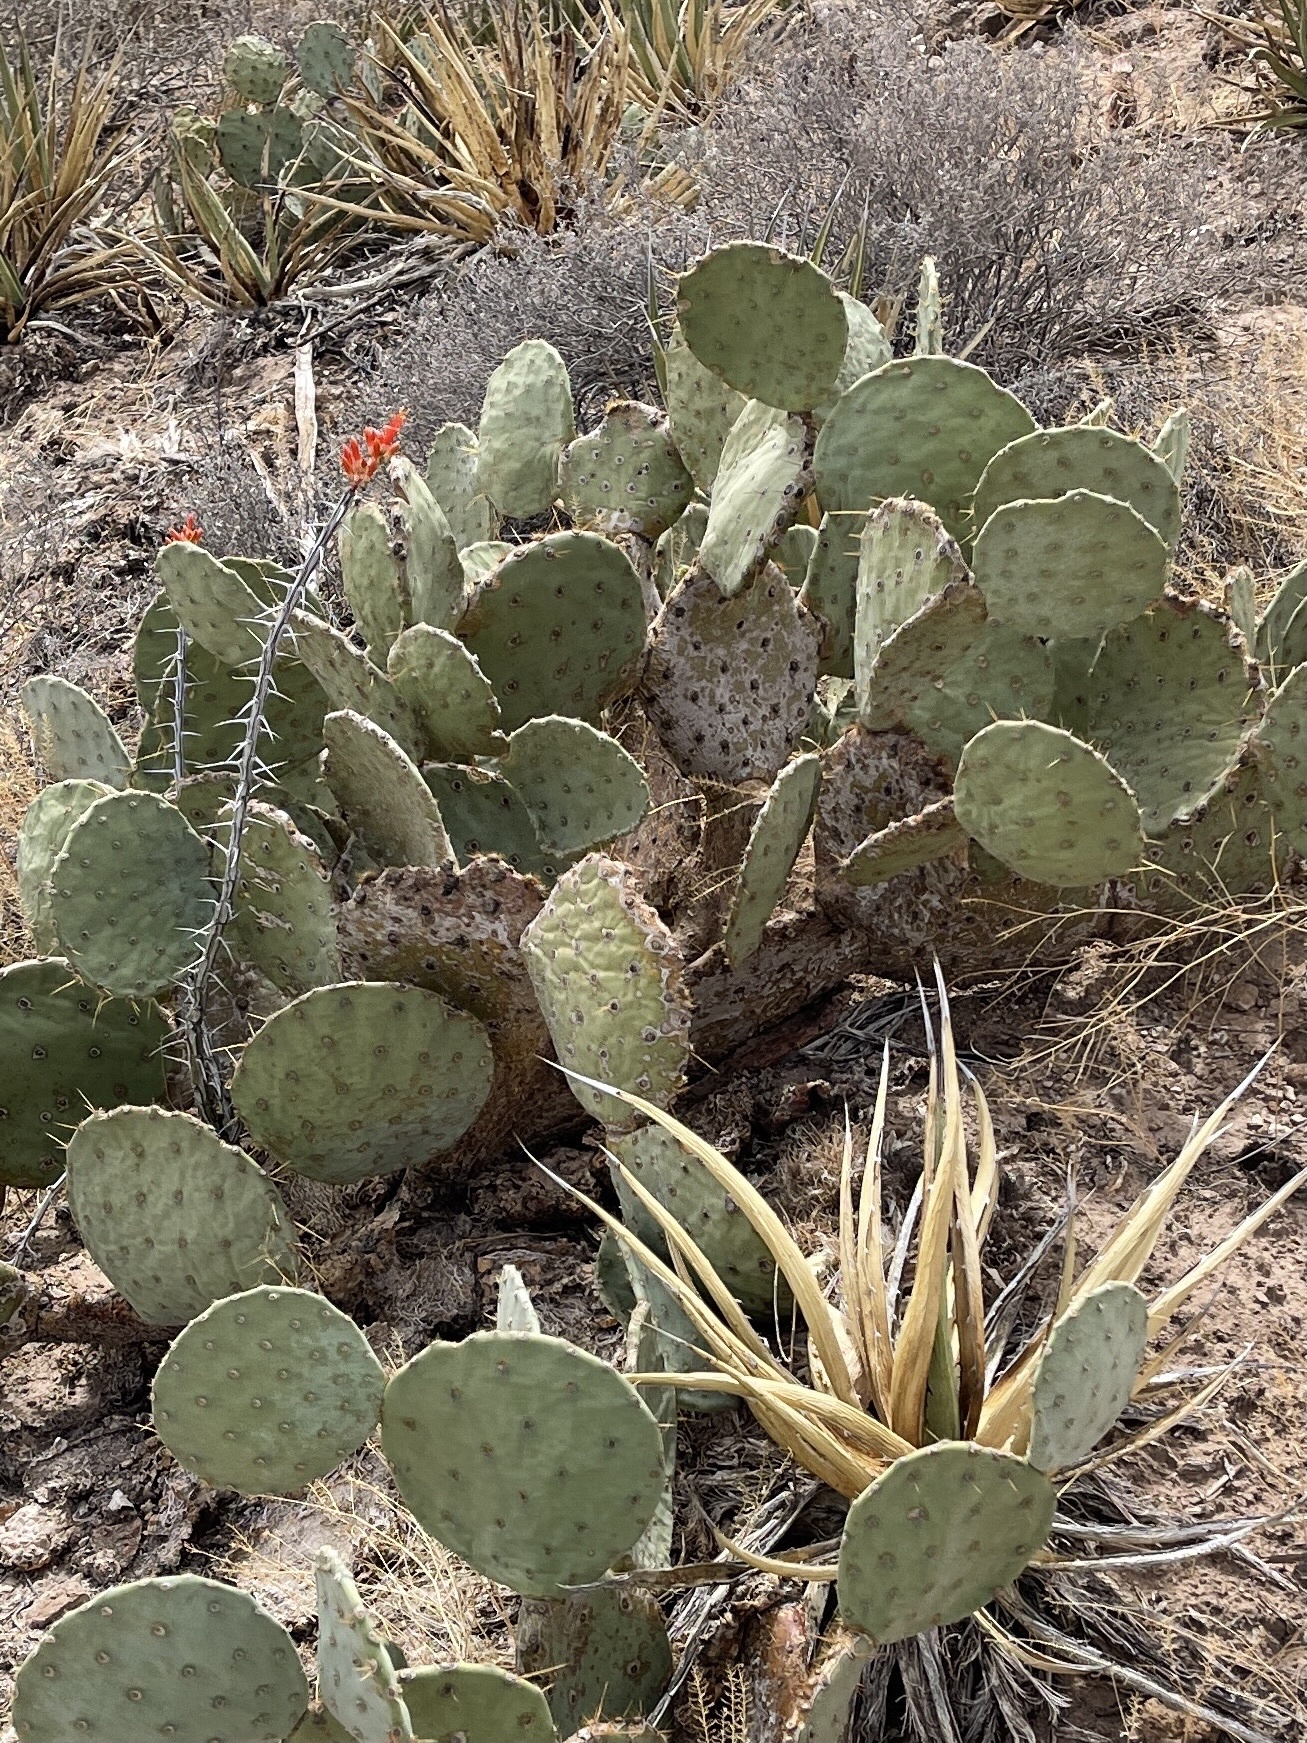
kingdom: Plantae
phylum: Tracheophyta
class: Magnoliopsida
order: Caryophyllales
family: Cactaceae
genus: Opuntia
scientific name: Opuntia engelmannii
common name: Cactus-apple
